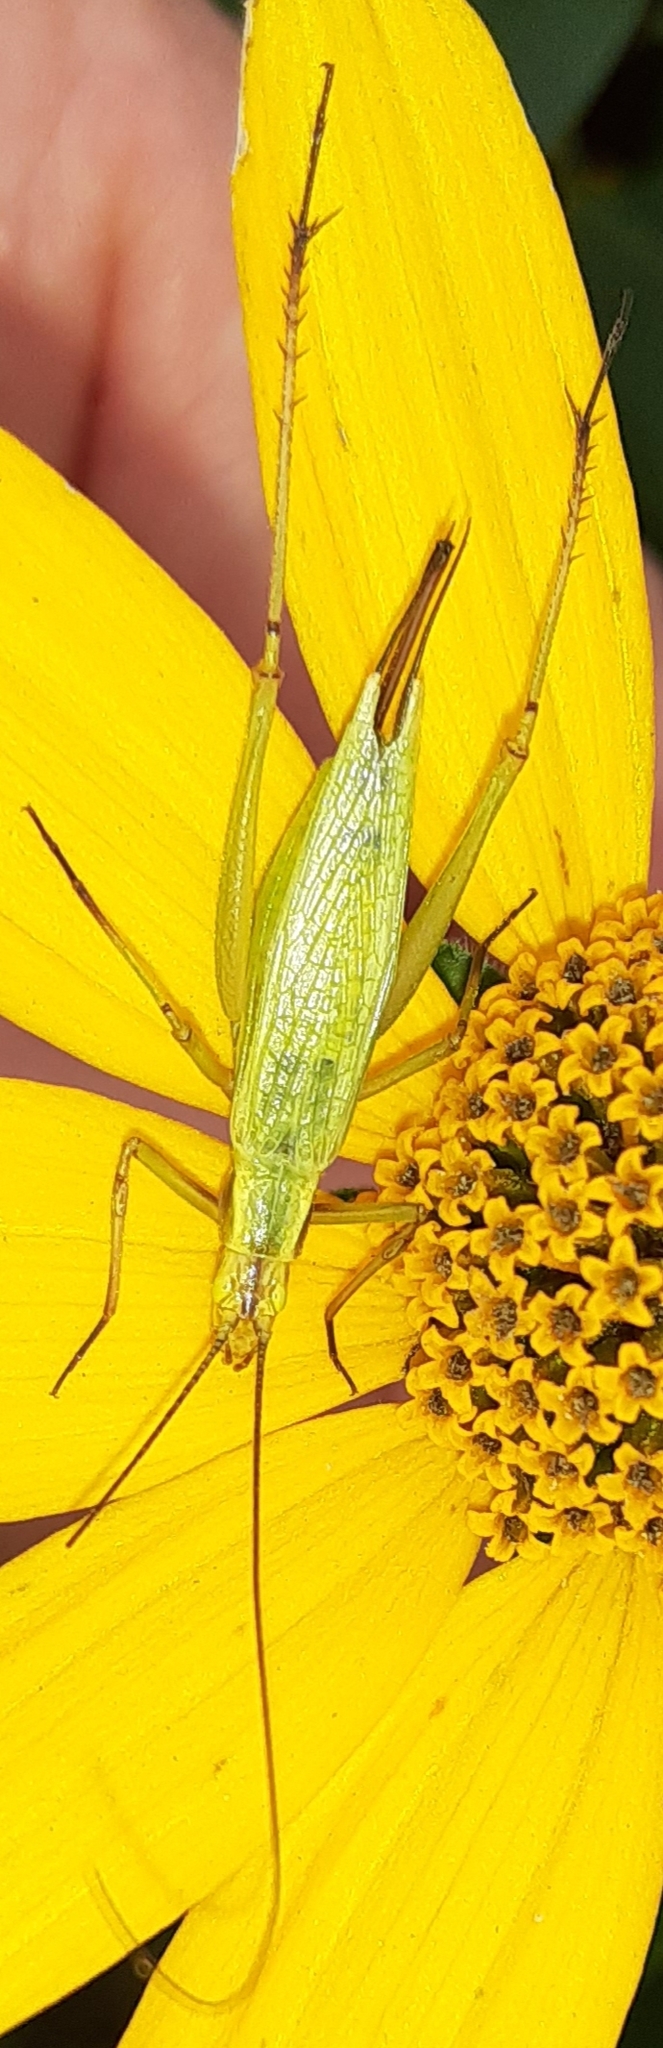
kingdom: Animalia
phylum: Arthropoda
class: Insecta
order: Orthoptera
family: Gryllidae
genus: Oecanthus
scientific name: Oecanthus nigricornis
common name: Black-horned tree cricket
